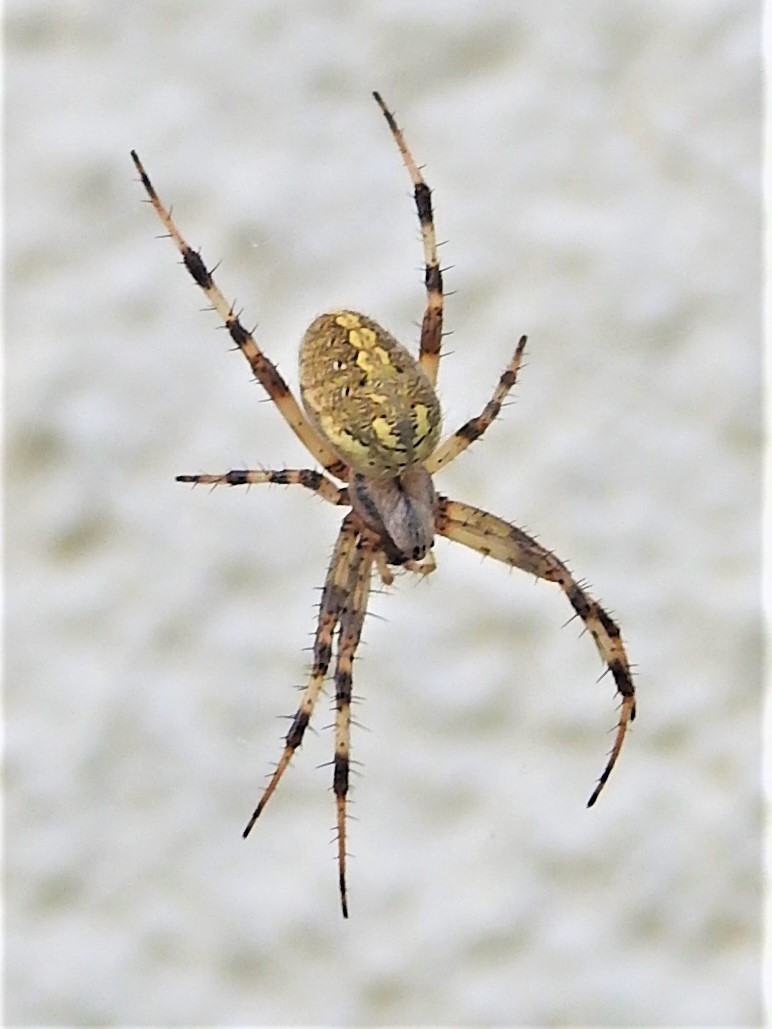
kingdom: Animalia
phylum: Arthropoda
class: Arachnida
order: Araneae
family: Araneidae
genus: Neoscona
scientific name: Neoscona oaxacensis
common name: Orb weavers
